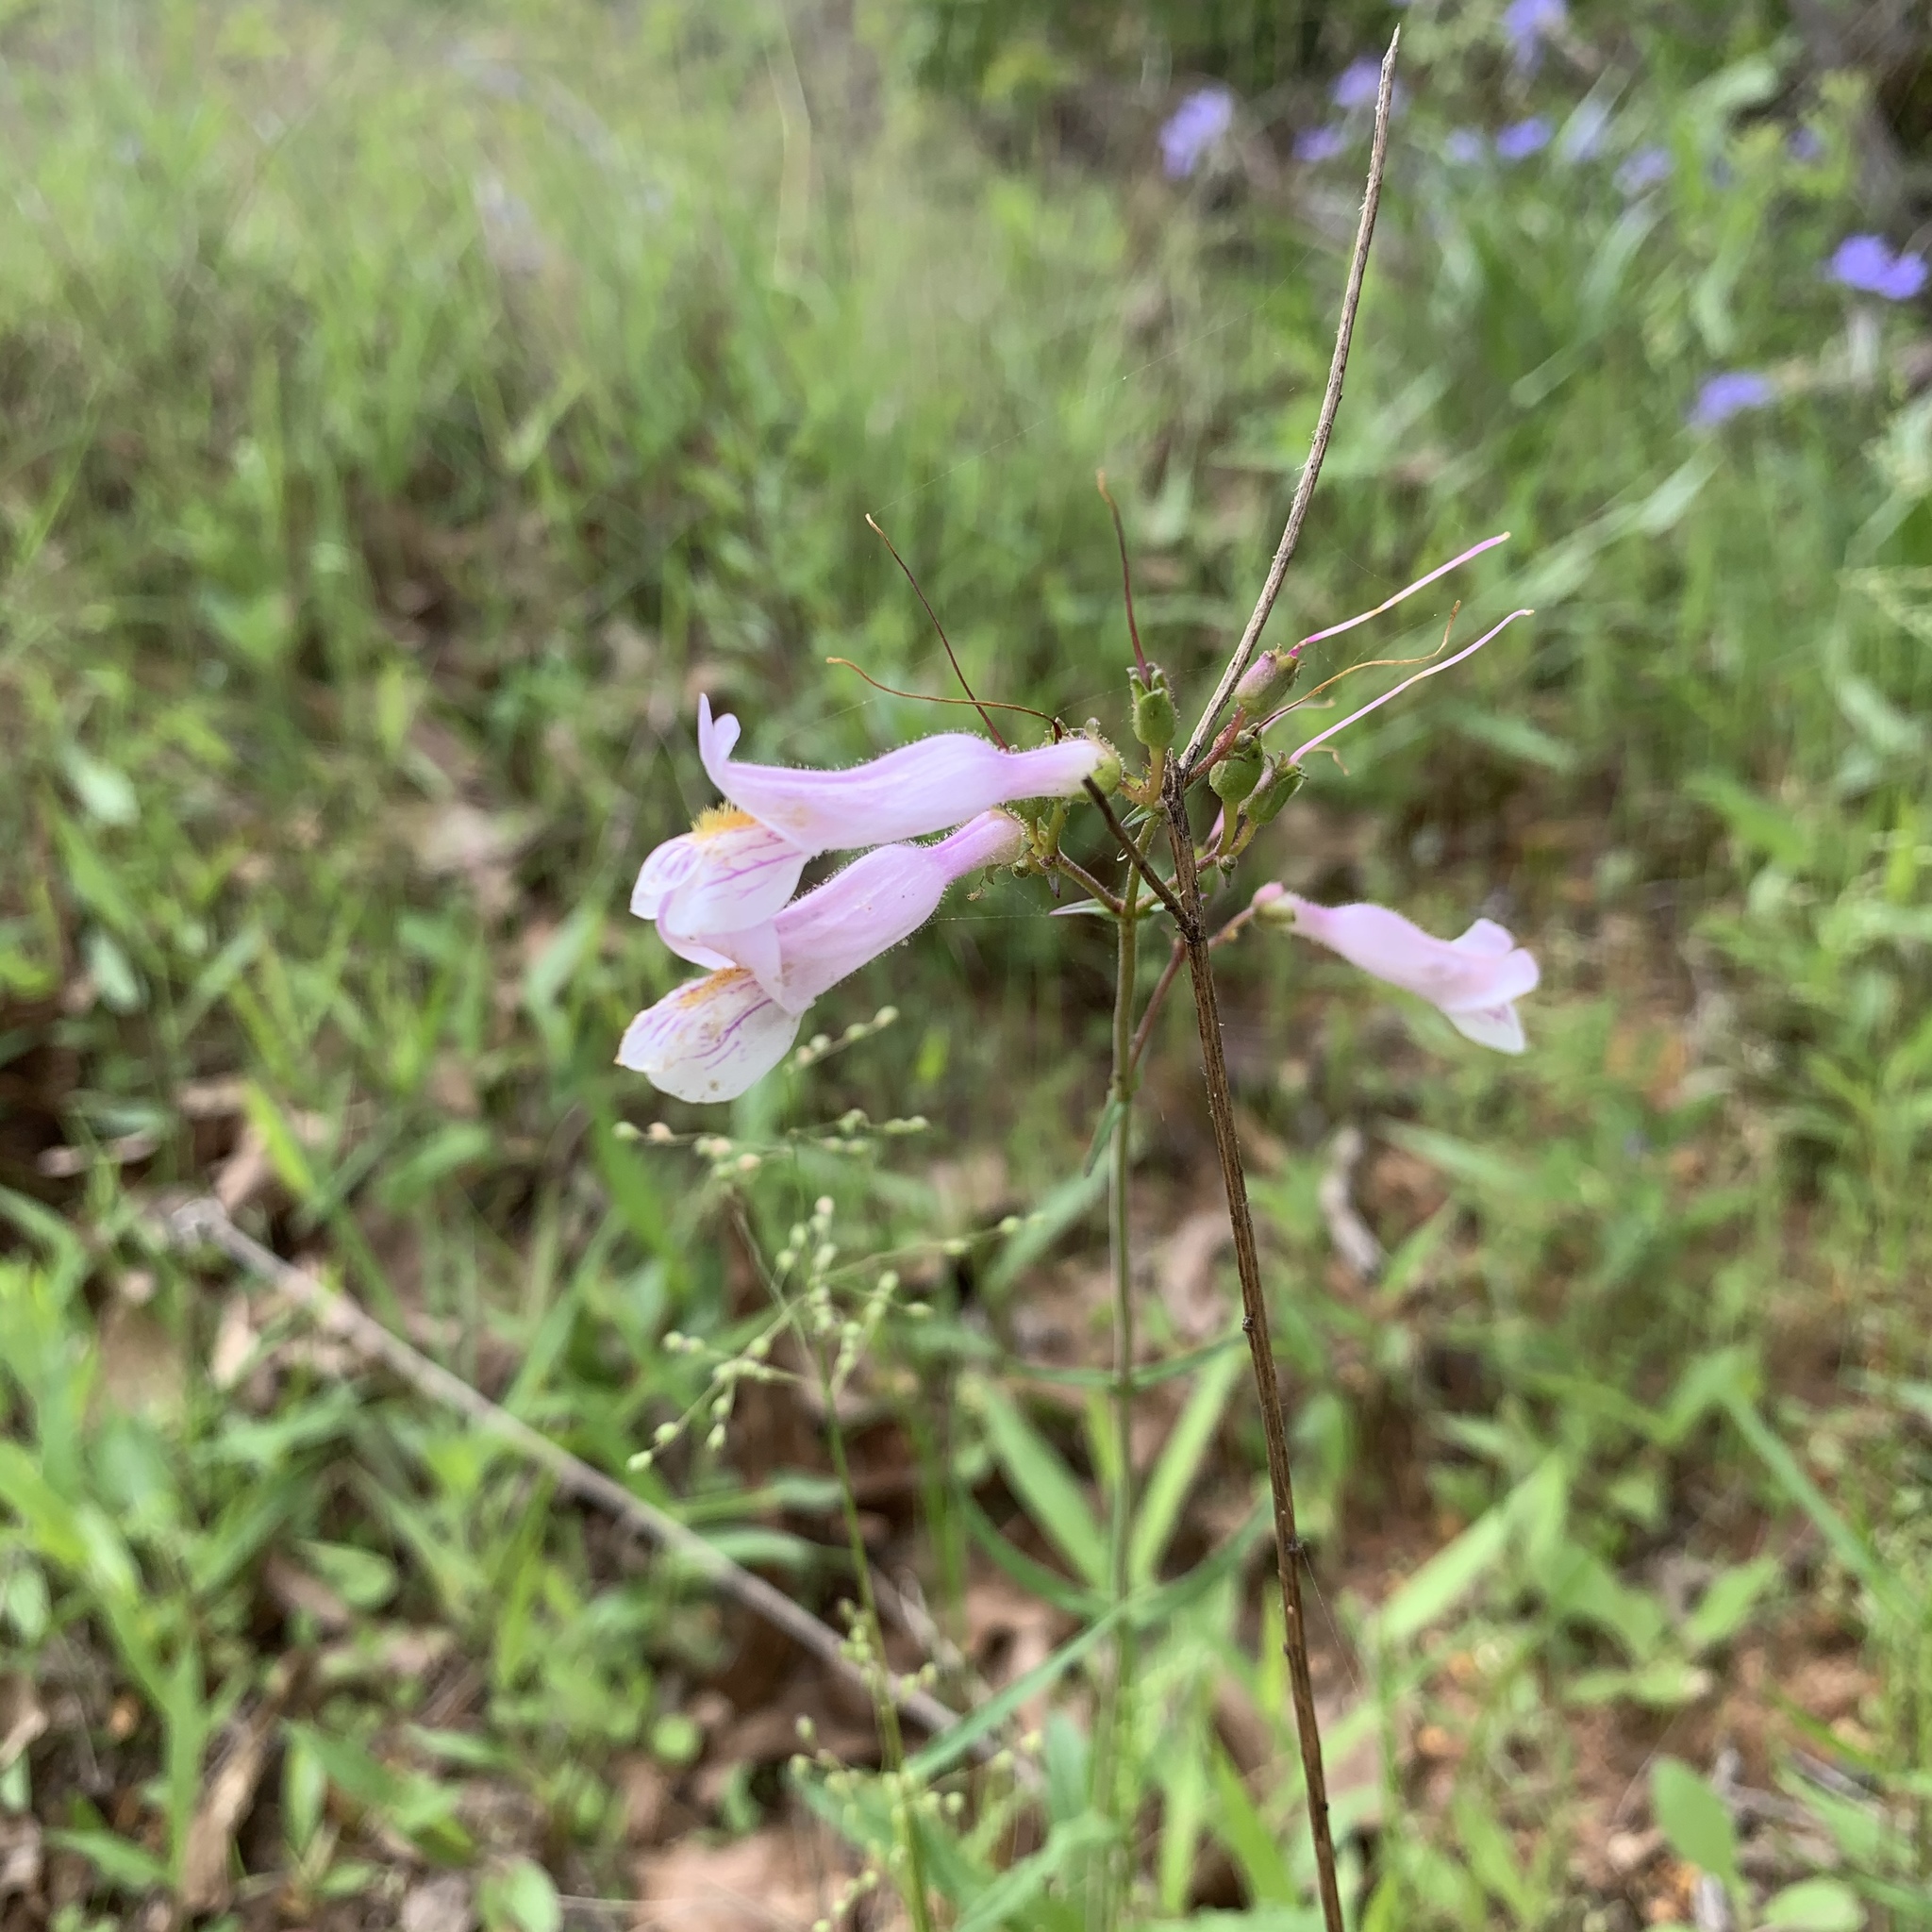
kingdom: Plantae
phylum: Tracheophyta
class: Magnoliopsida
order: Lamiales
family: Plantaginaceae
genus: Penstemon
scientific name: Penstemon laxiflorus
